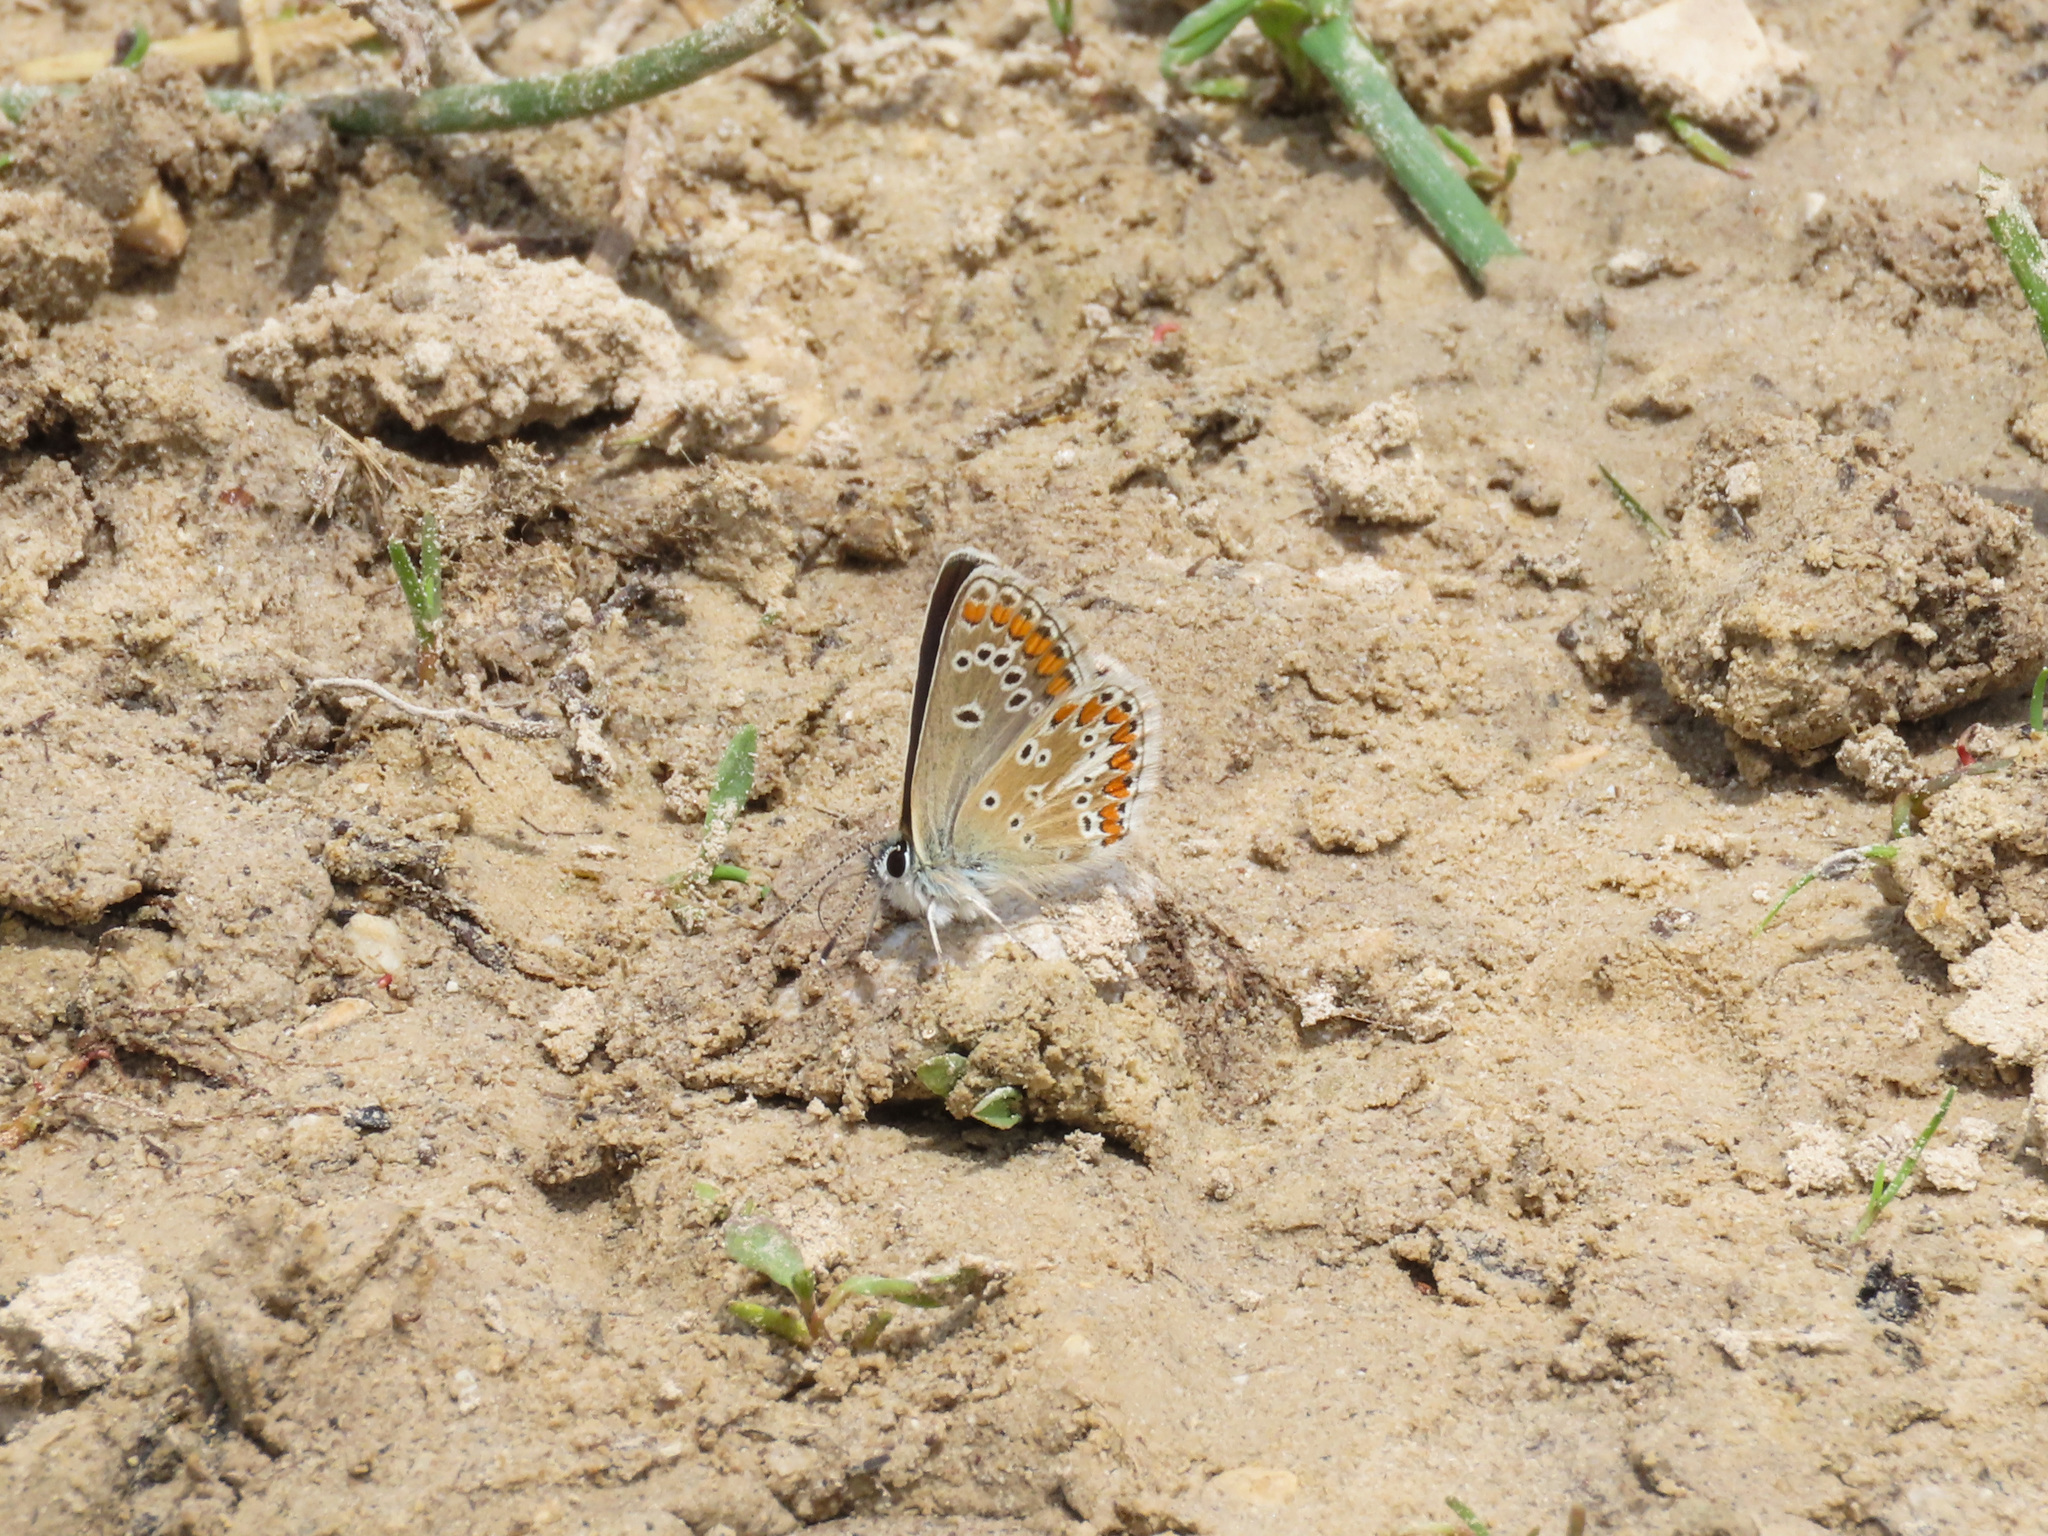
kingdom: Animalia
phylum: Arthropoda
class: Insecta
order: Lepidoptera
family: Lycaenidae
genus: Aricia
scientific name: Aricia artaxerxes
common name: Northern brown argus
